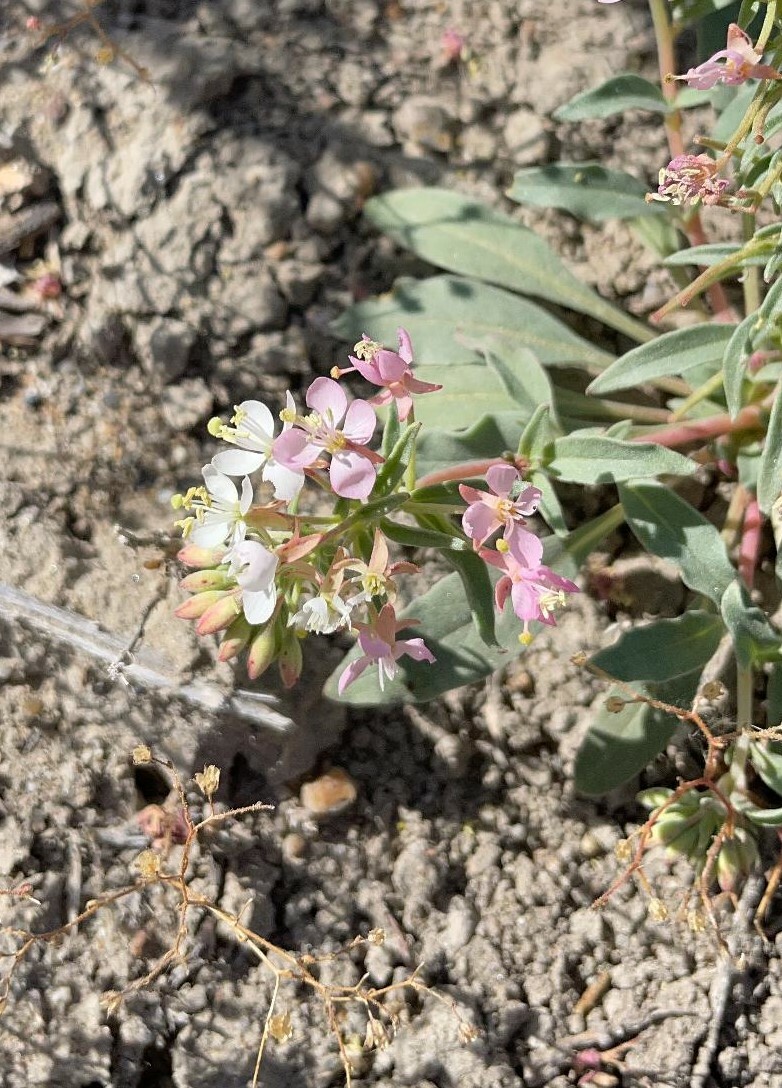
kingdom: Plantae
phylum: Tracheophyta
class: Magnoliopsida
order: Myrtales
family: Onagraceae
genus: Eremothera
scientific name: Eremothera boothii
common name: Booth's evening primrose
